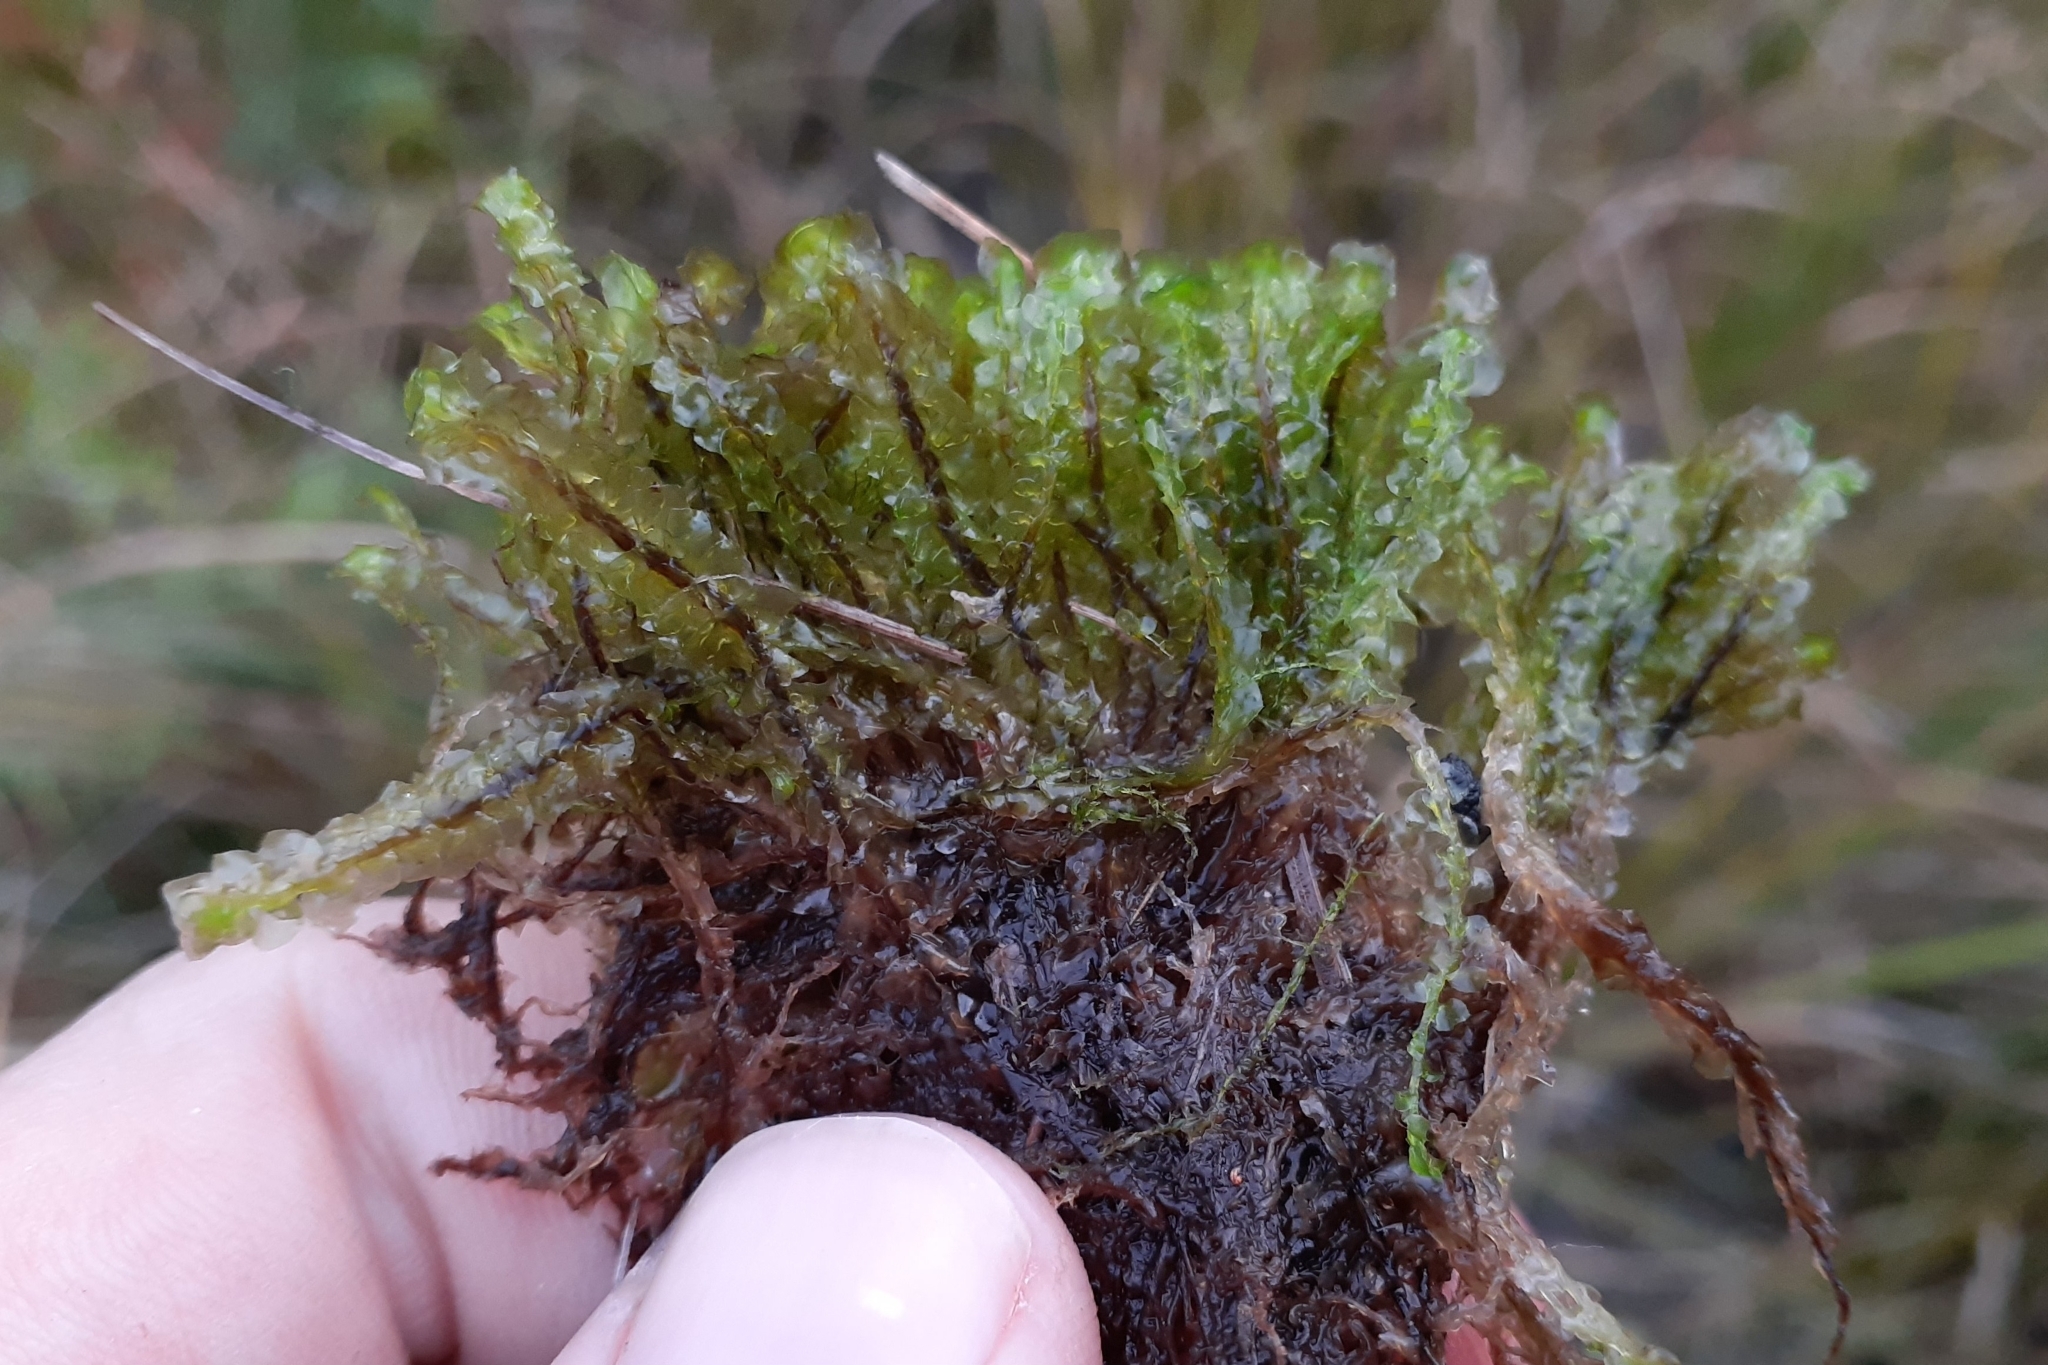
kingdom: Plantae
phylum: Marchantiophyta
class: Jungermanniopsida
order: Jungermanniales
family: Scapaniaceae
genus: Scapania
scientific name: Scapania paludicola
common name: Bog earwort
